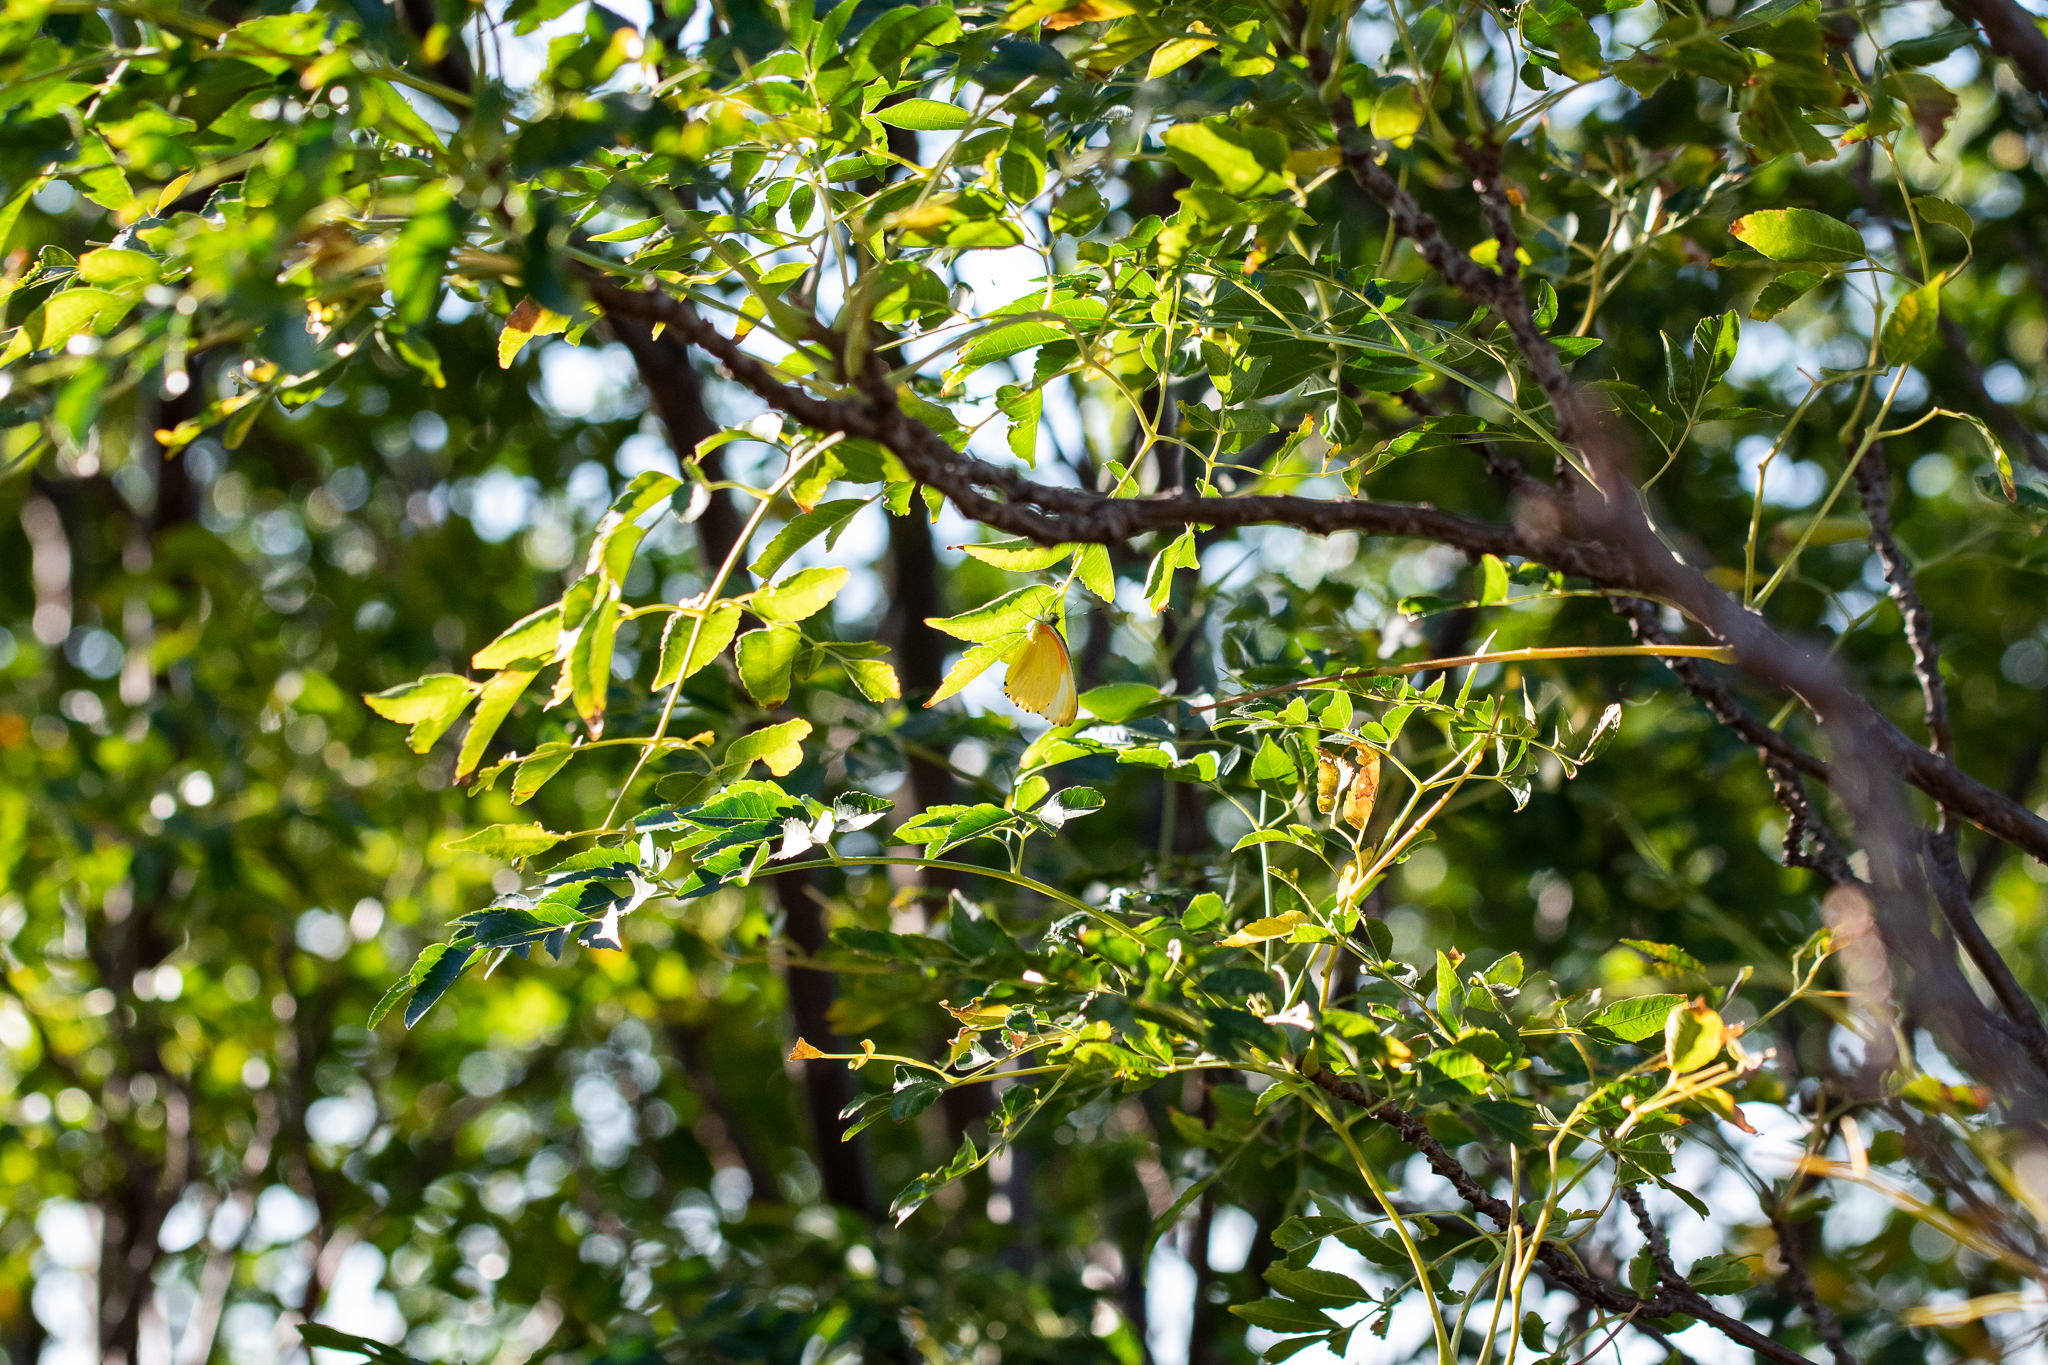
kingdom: Plantae
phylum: Tracheophyta
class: Magnoliopsida
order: Sapindales
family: Meliaceae
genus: Melia
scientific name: Melia azedarach
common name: Chinaberrytree
